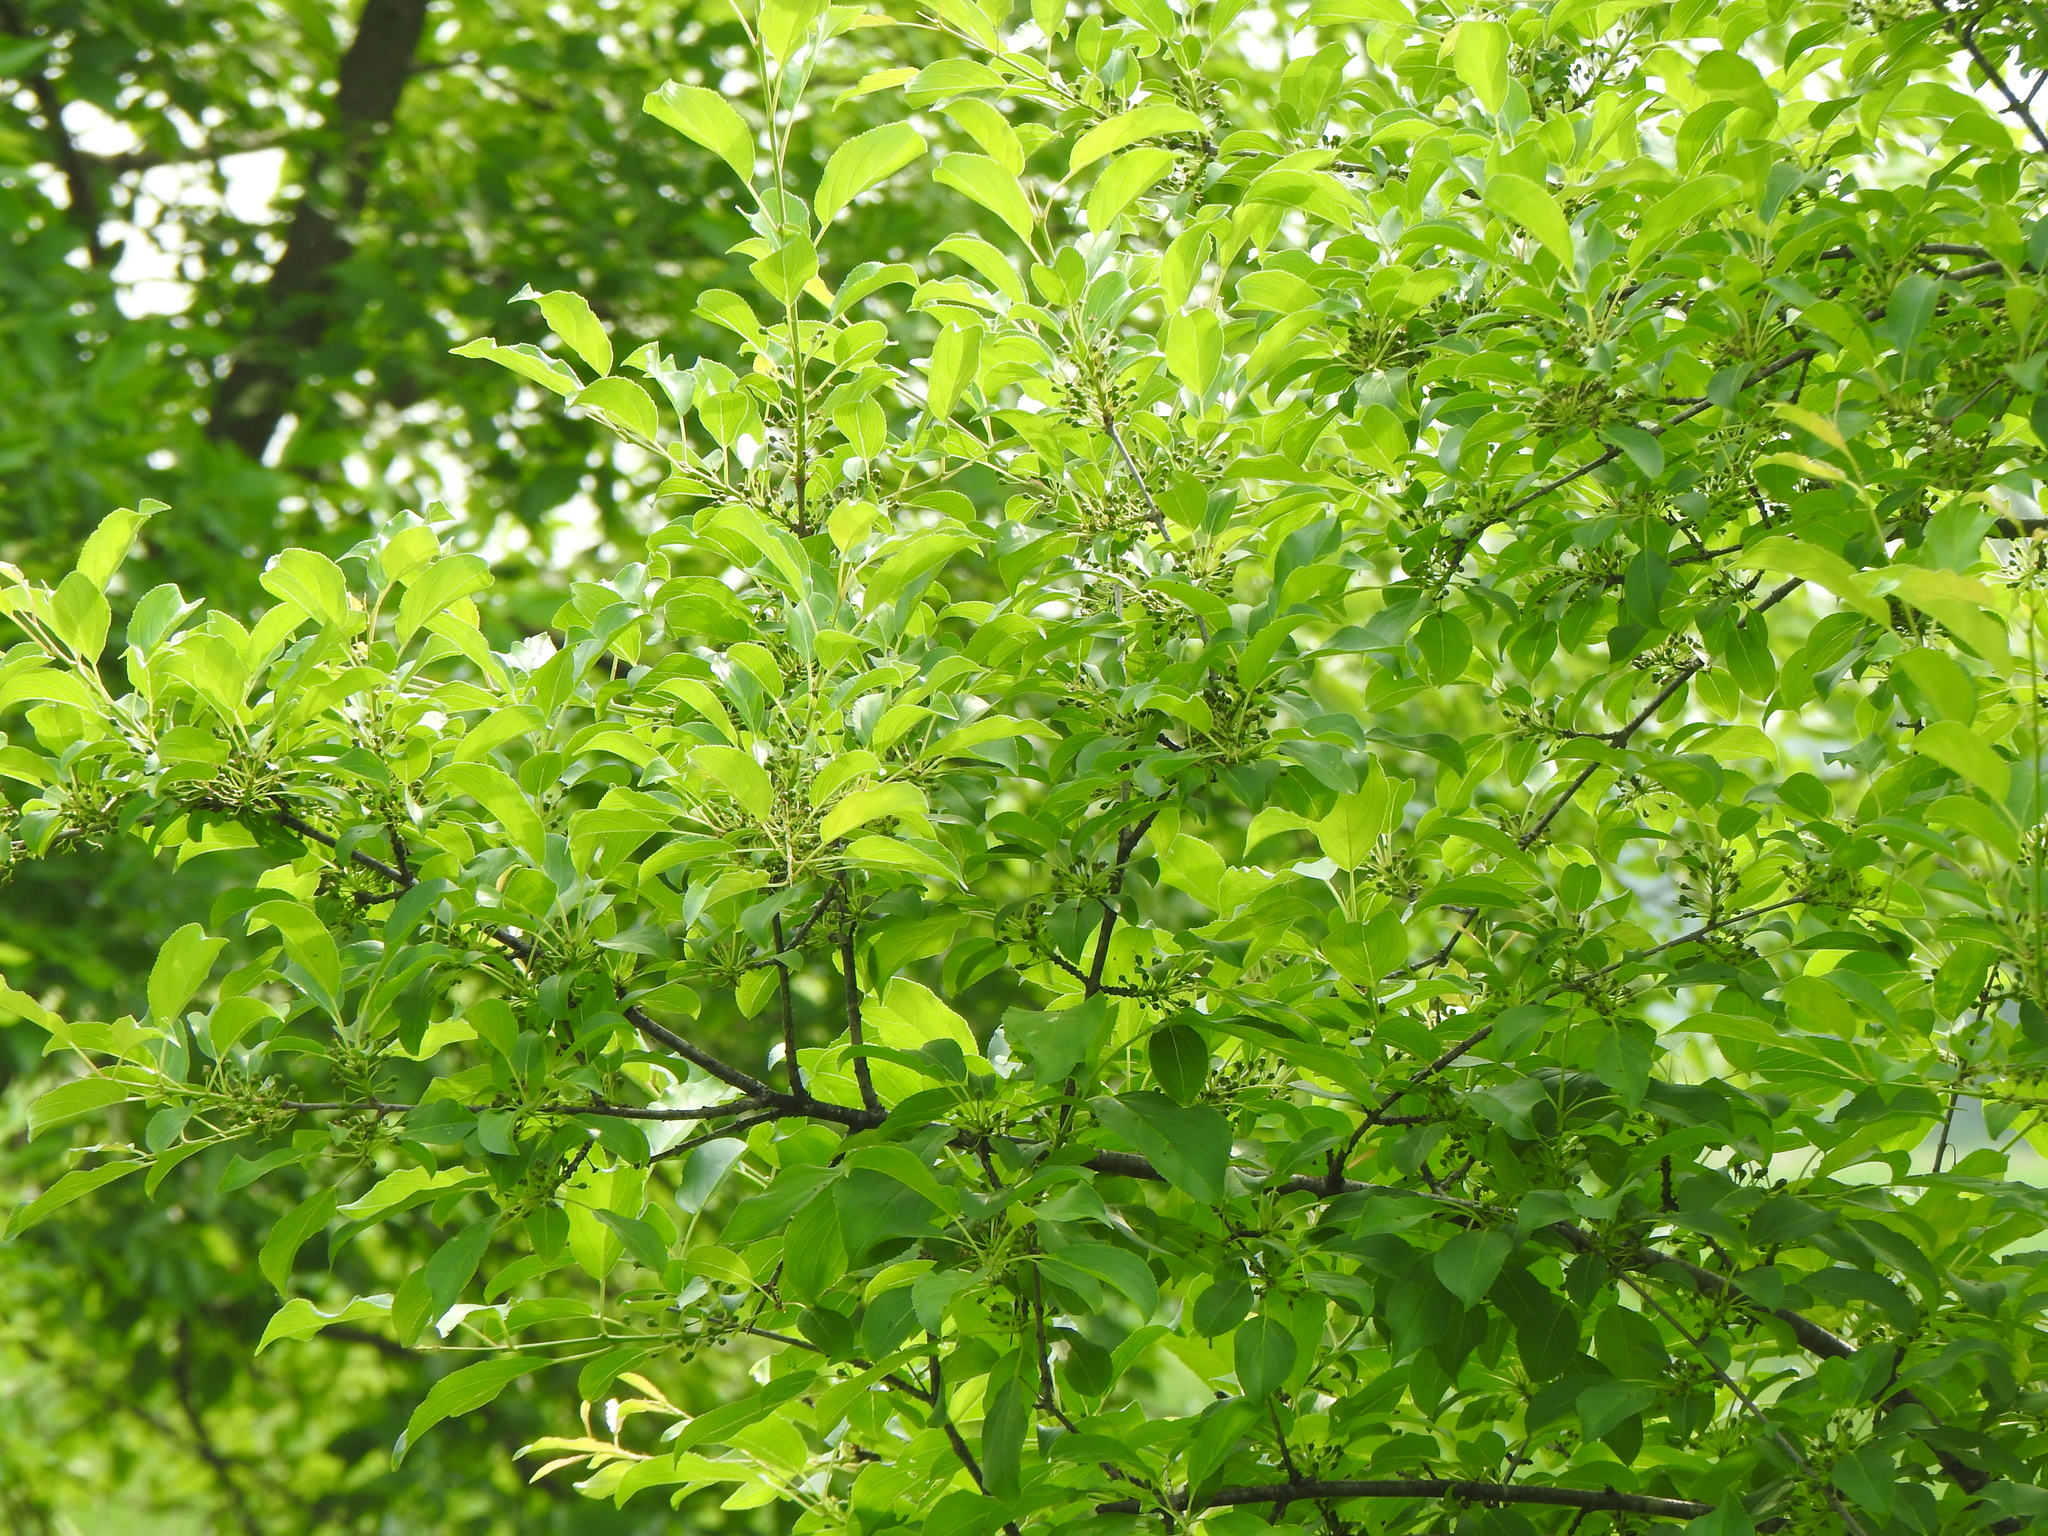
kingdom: Plantae
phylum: Tracheophyta
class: Magnoliopsida
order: Rosales
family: Rhamnaceae
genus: Rhamnus
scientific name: Rhamnus cathartica
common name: Common buckthorn
